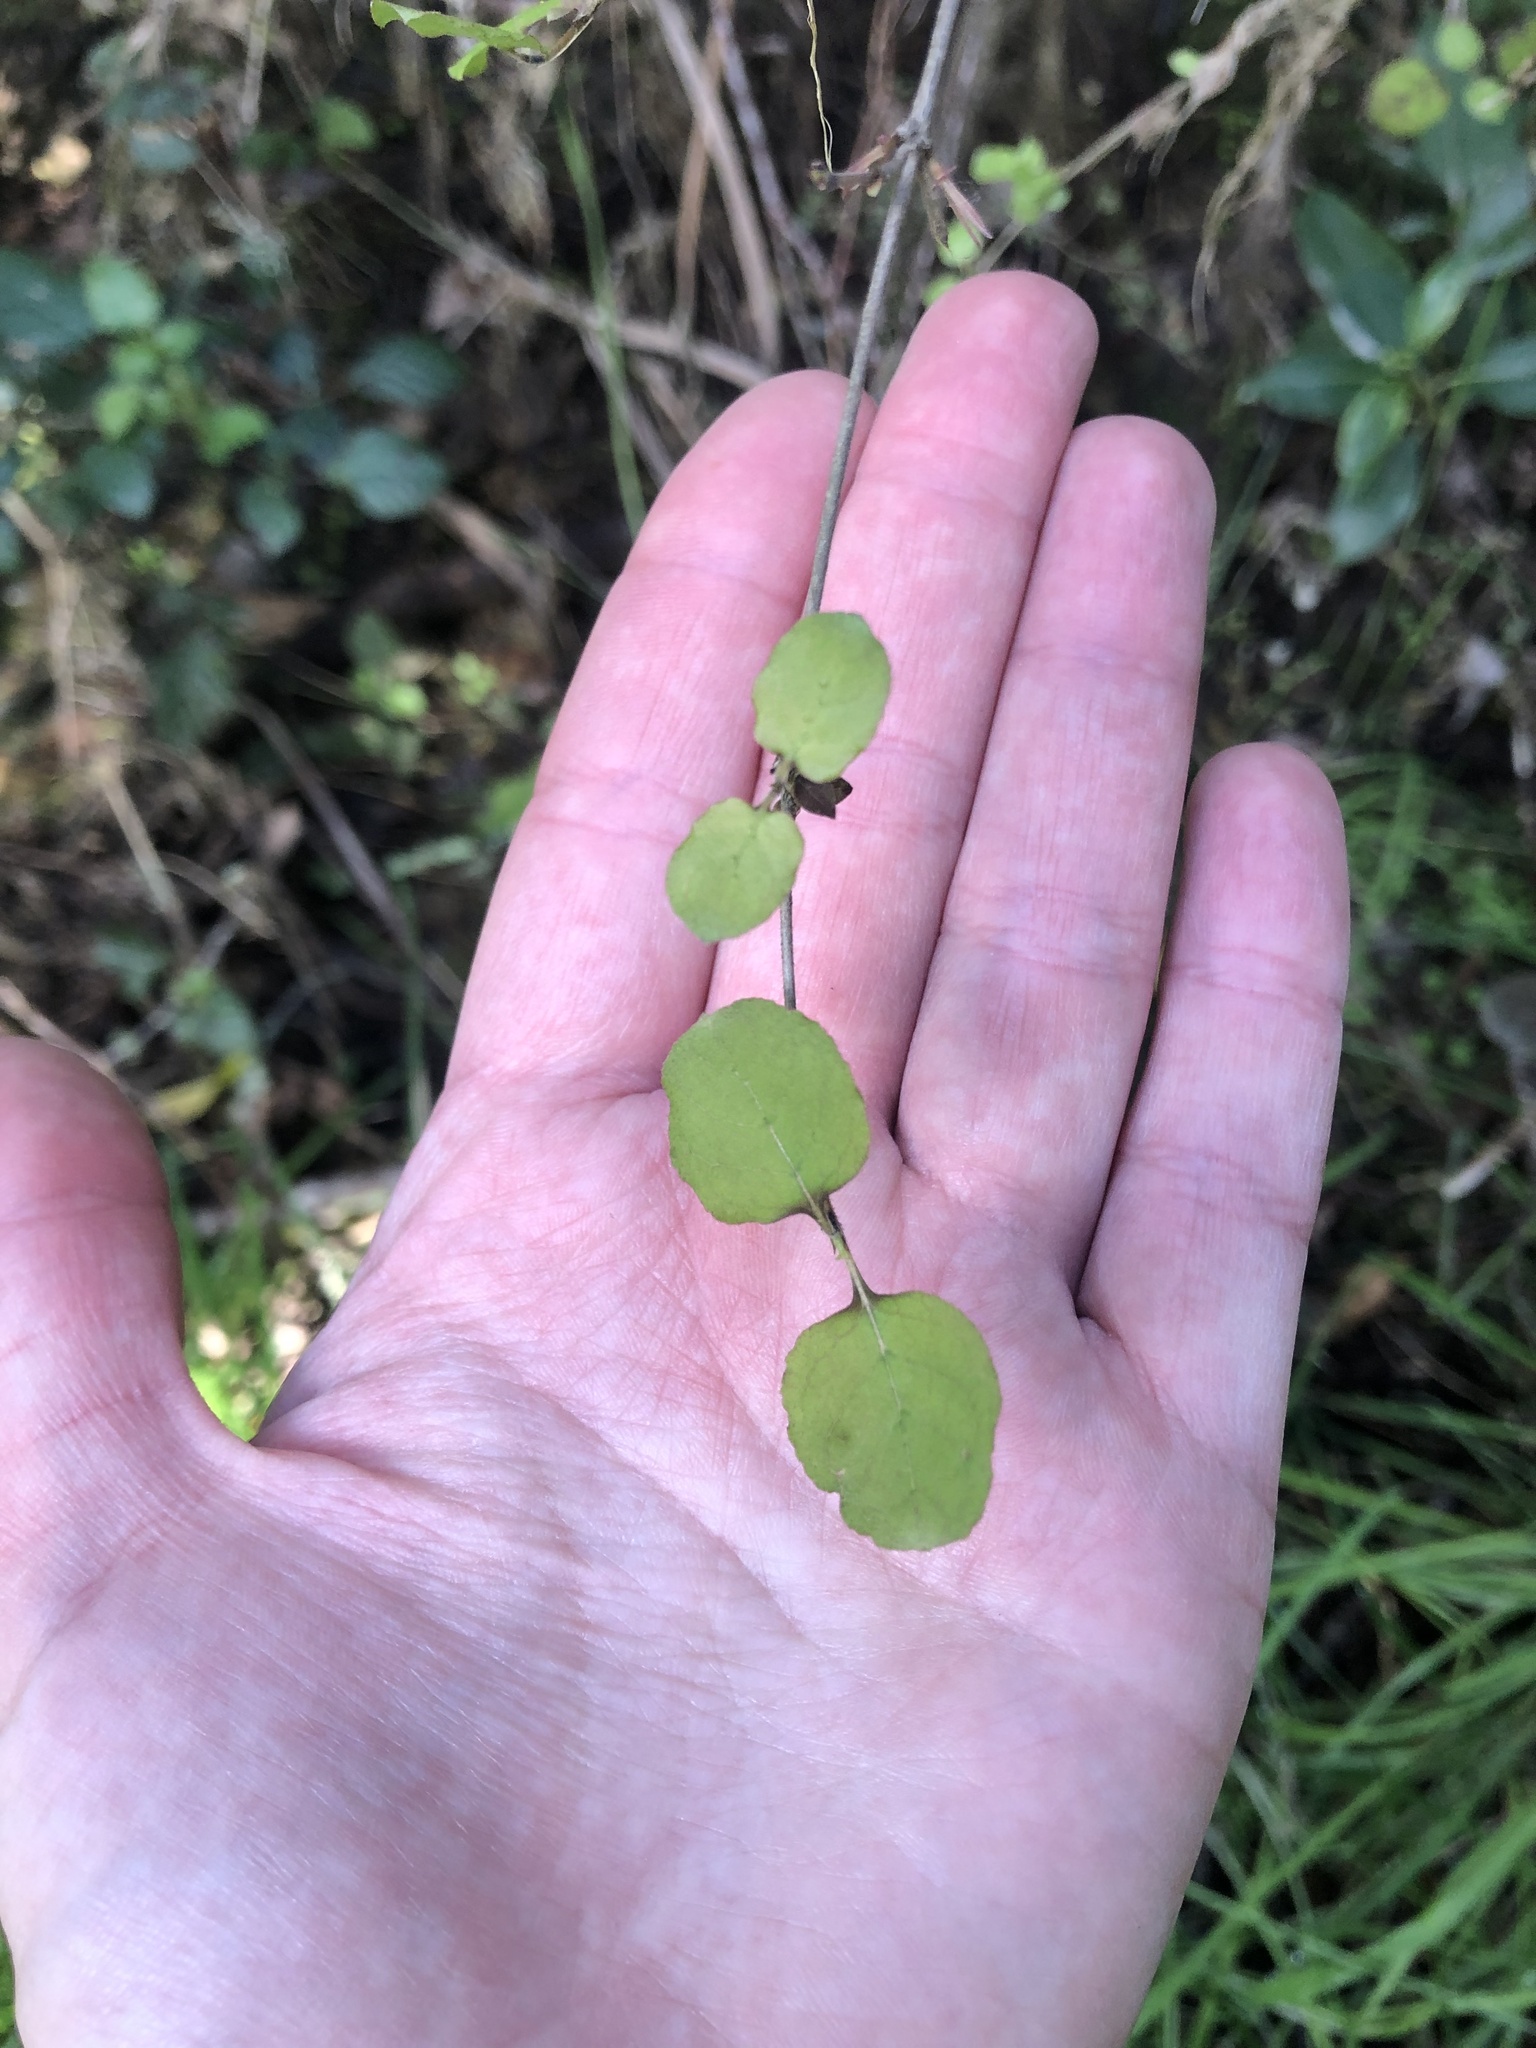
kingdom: Plantae
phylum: Tracheophyta
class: Magnoliopsida
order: Gentianales
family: Rubiaceae
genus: Coprosma
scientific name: Coprosma rotundifolia
